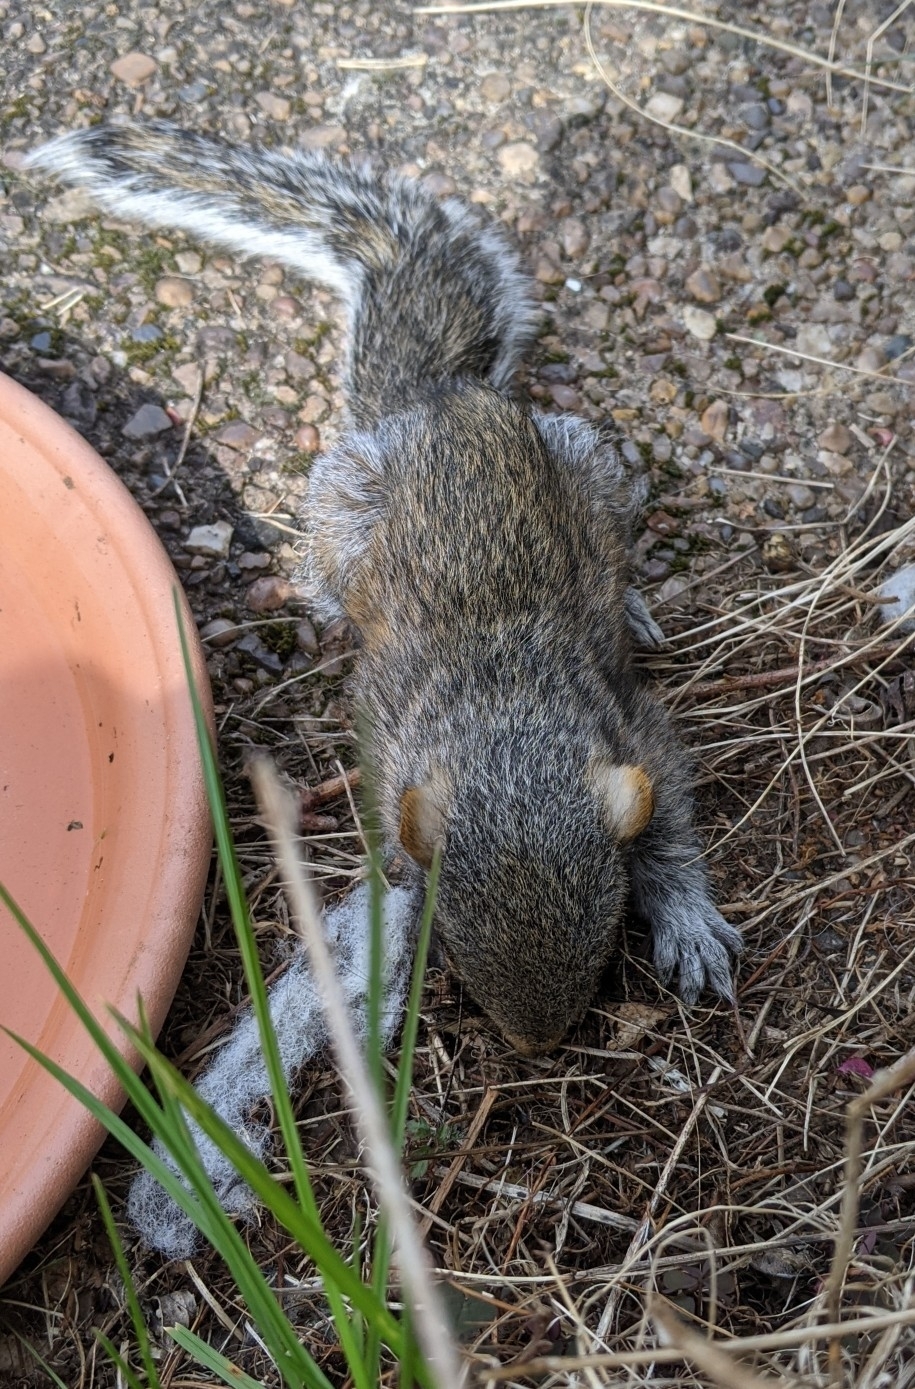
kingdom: Animalia
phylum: Chordata
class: Mammalia
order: Rodentia
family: Sciuridae
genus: Sciurus
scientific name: Sciurus carolinensis
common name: Eastern gray squirrel
